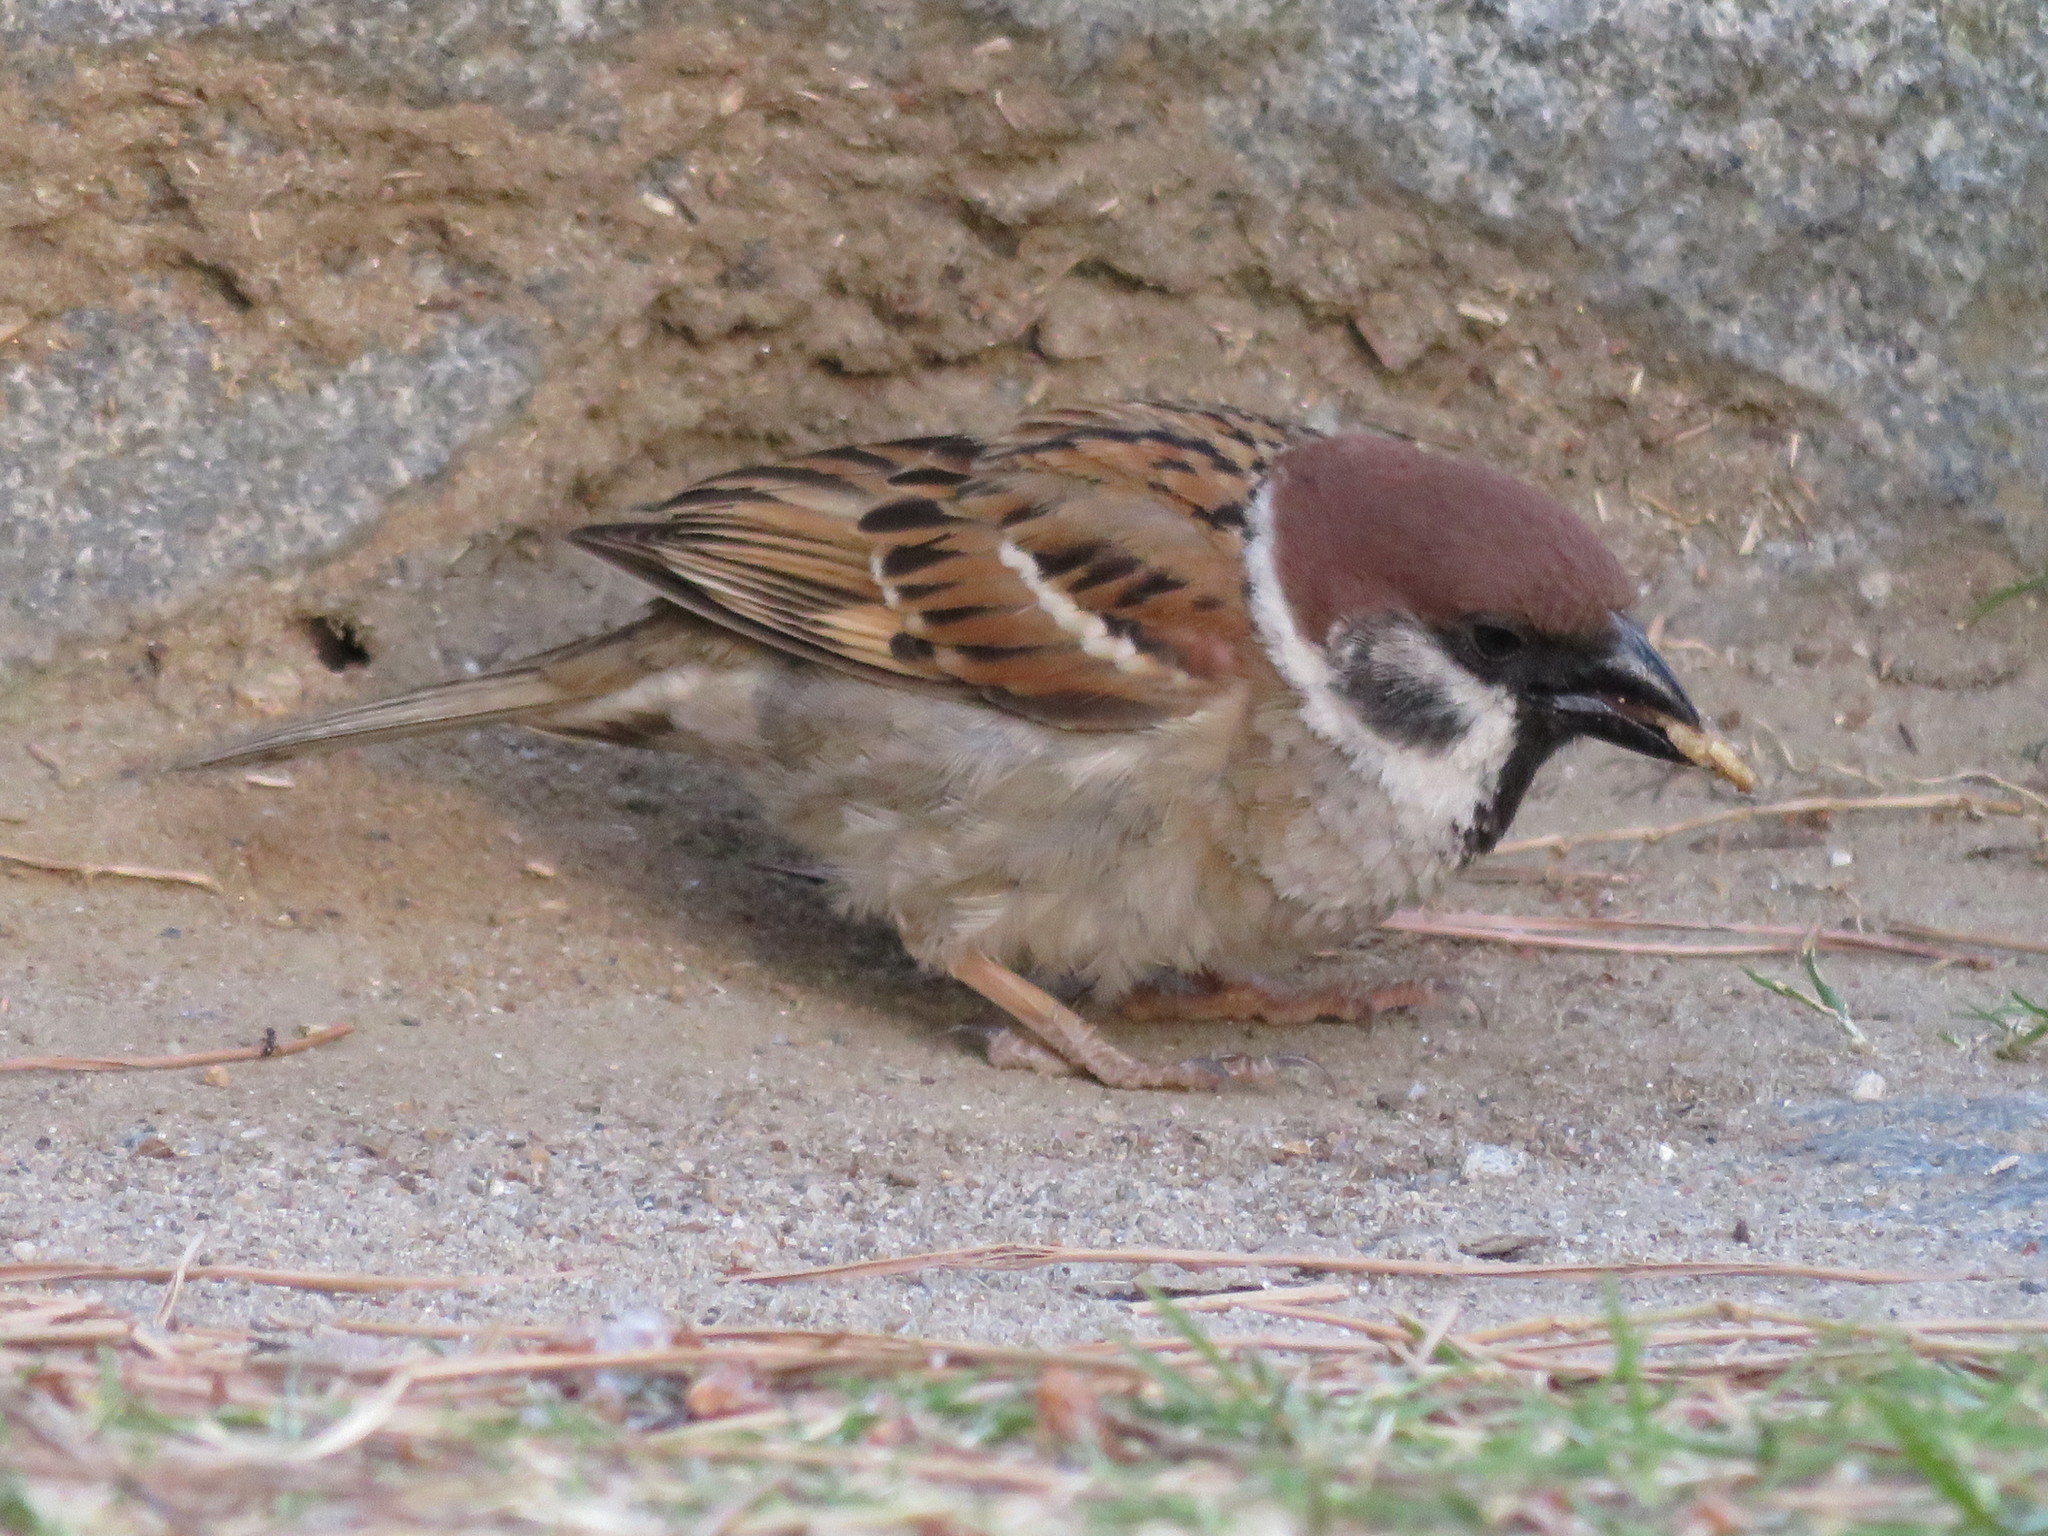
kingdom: Animalia
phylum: Chordata
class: Aves
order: Passeriformes
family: Passeridae
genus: Passer
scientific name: Passer montanus
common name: Eurasian tree sparrow
